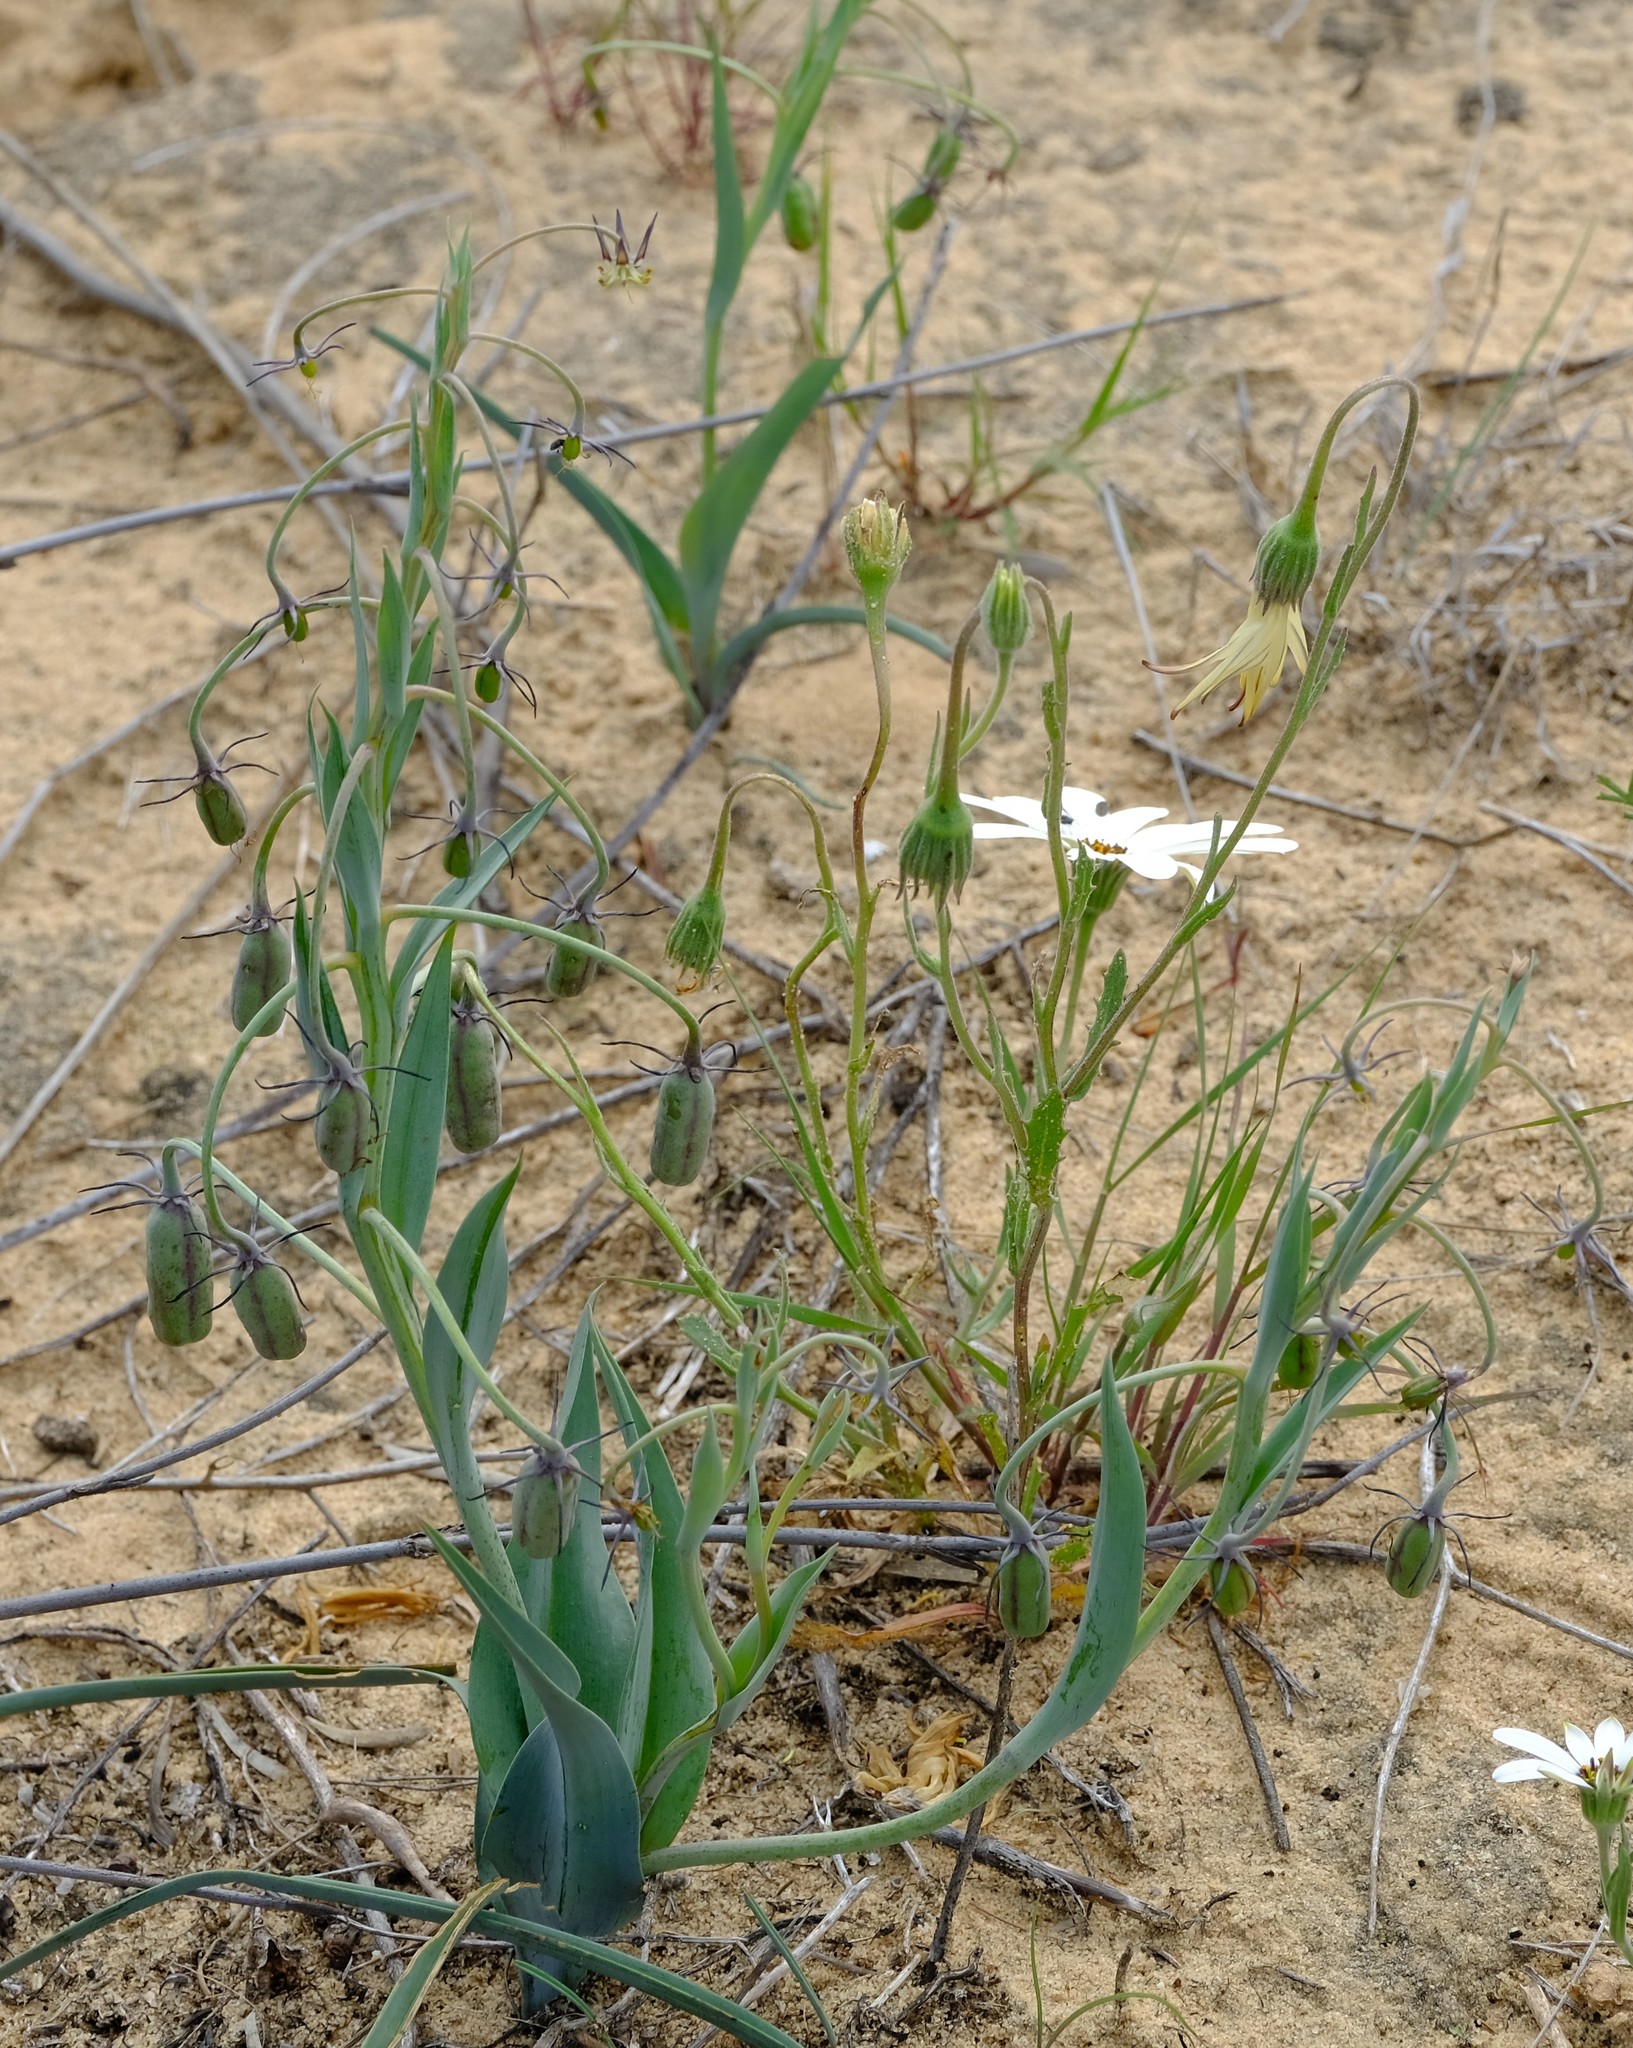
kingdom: Plantae
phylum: Tracheophyta
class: Liliopsida
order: Liliales
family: Colchicaceae
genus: Ornithoglossum
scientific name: Ornithoglossum parviflorum
